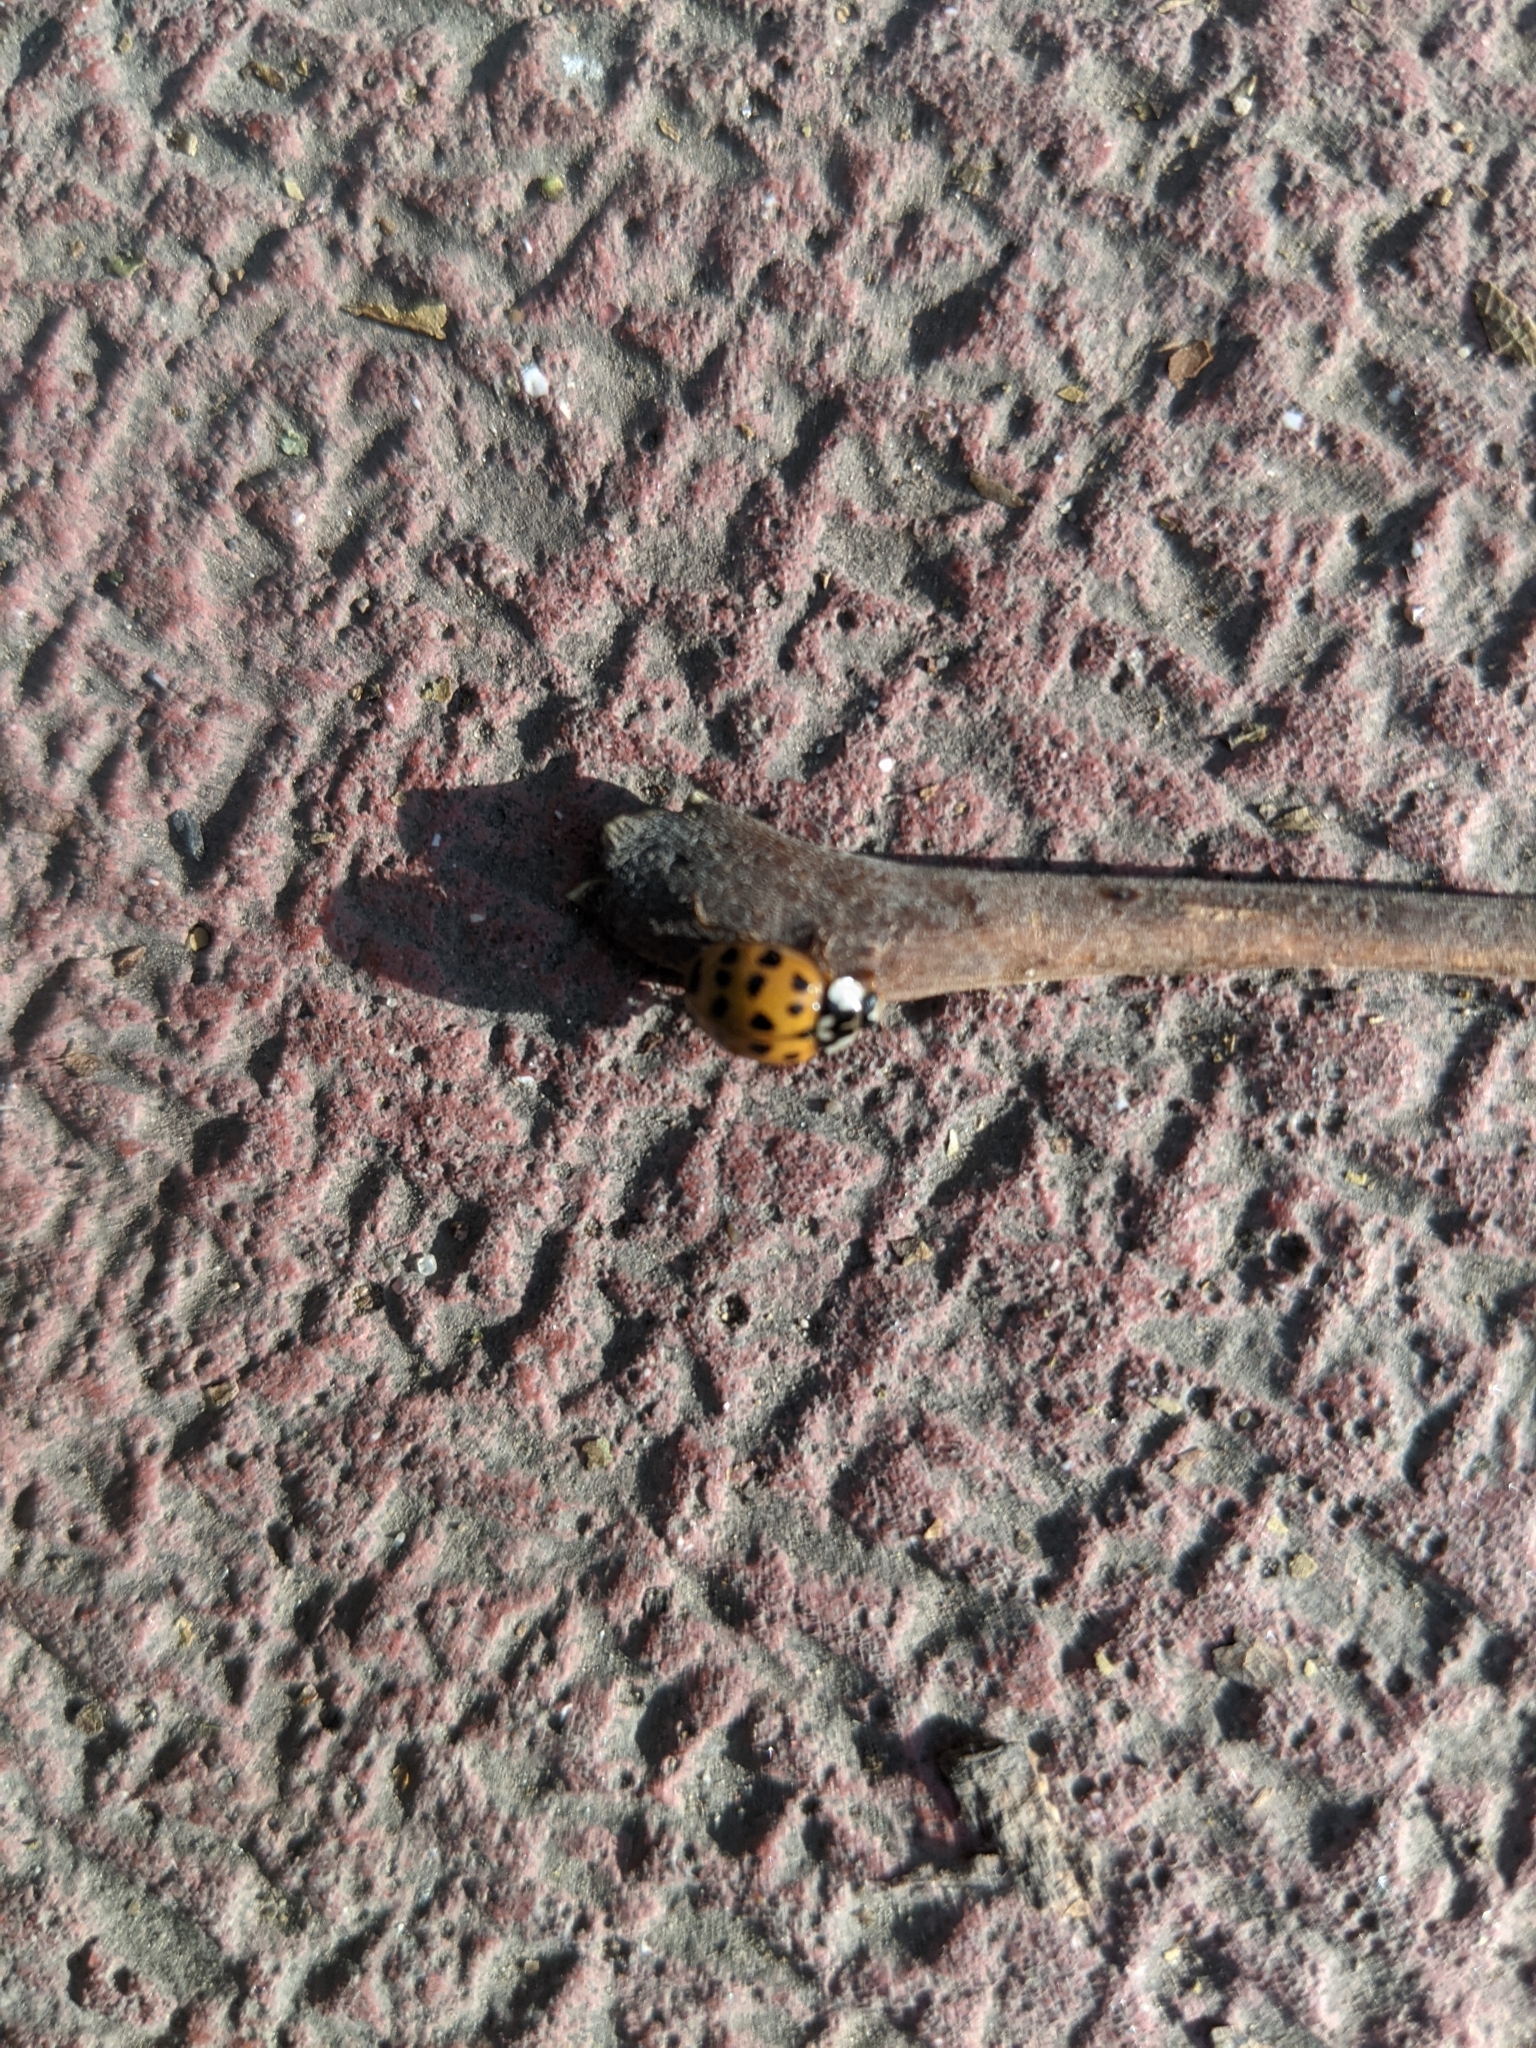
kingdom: Animalia
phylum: Arthropoda
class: Insecta
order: Coleoptera
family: Coccinellidae
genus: Harmonia
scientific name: Harmonia axyridis
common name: Harlequin ladybird
